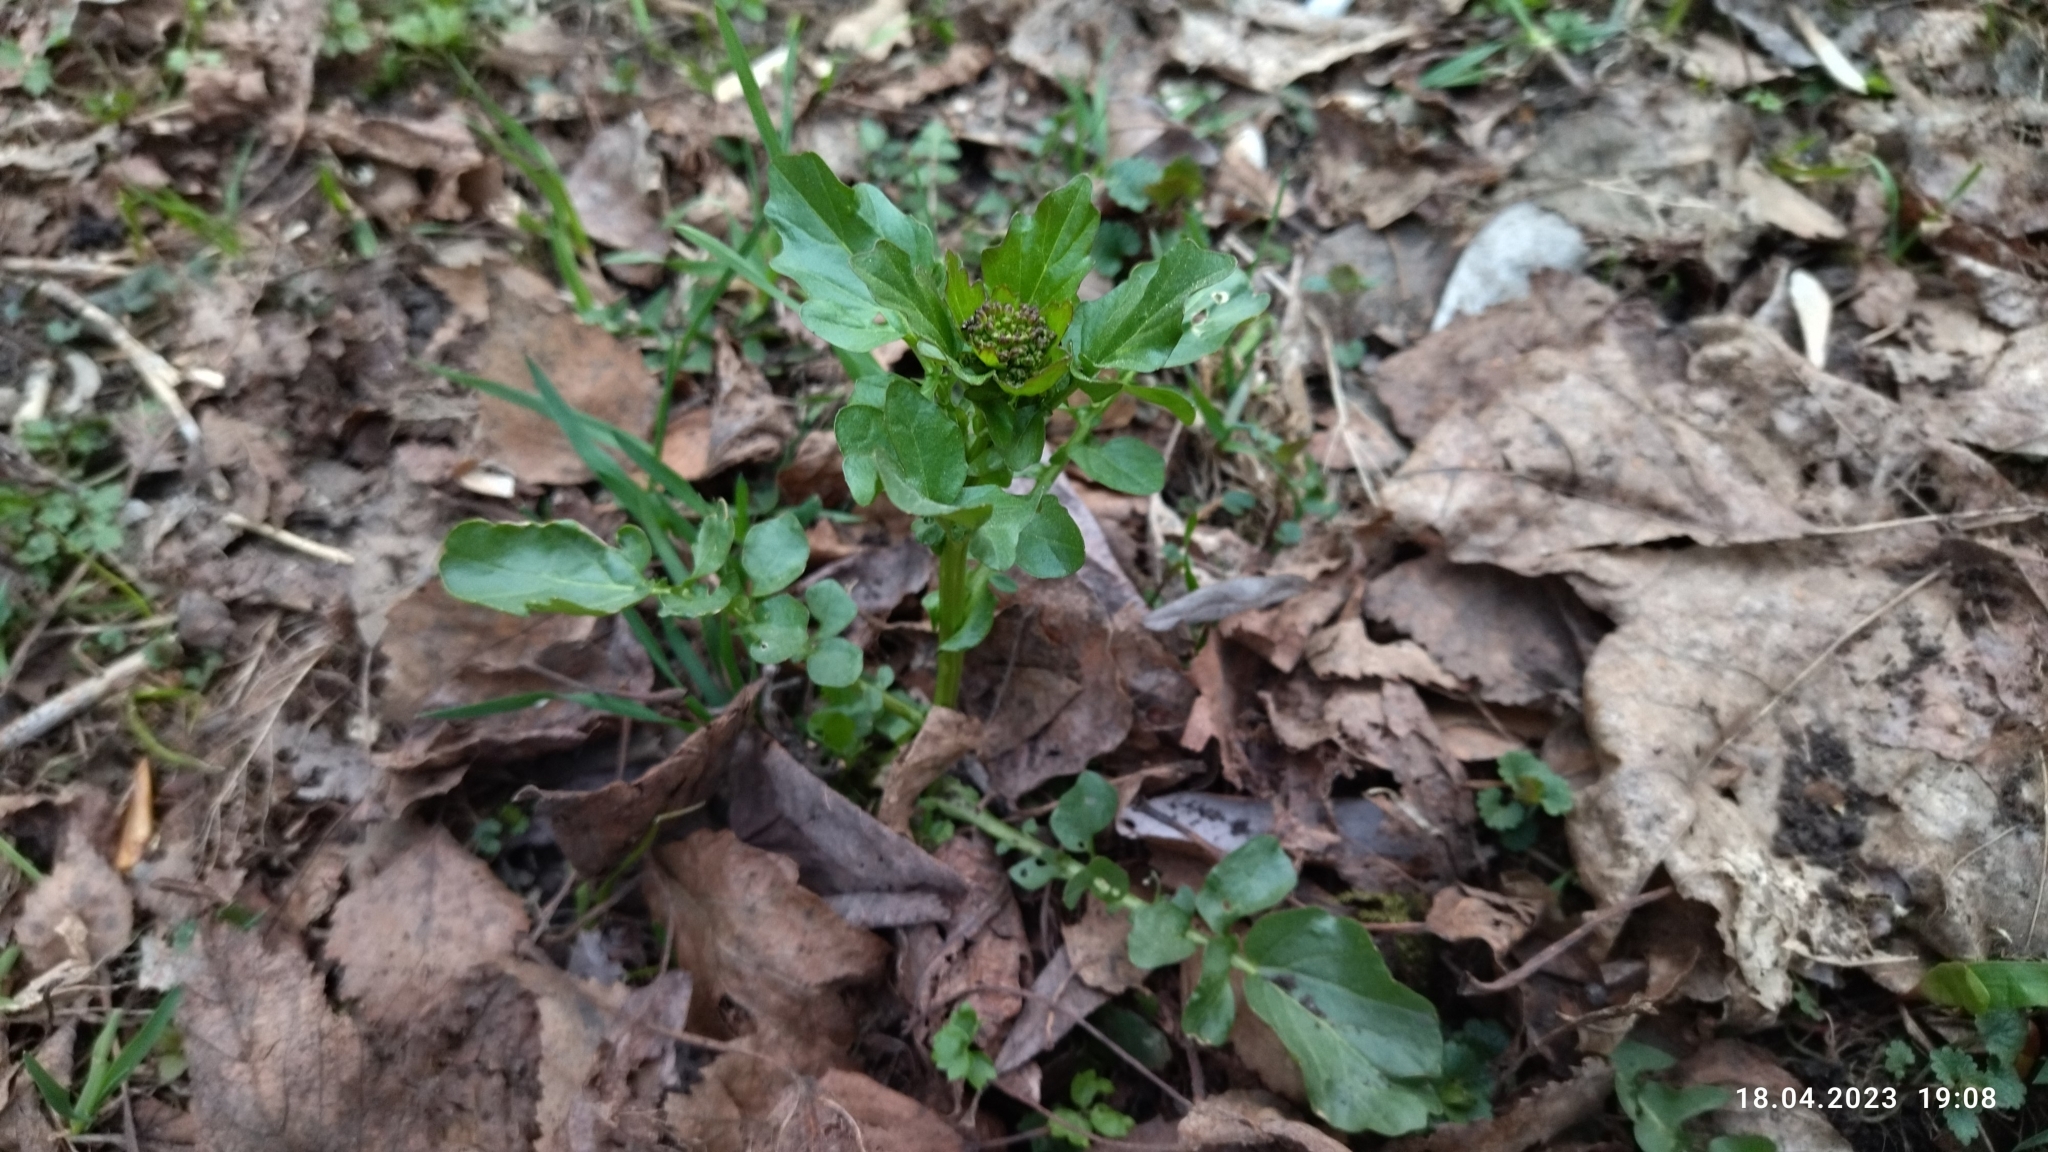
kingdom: Plantae
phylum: Tracheophyta
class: Magnoliopsida
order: Brassicales
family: Brassicaceae
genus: Barbarea
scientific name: Barbarea vulgaris
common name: Cressy-greens
